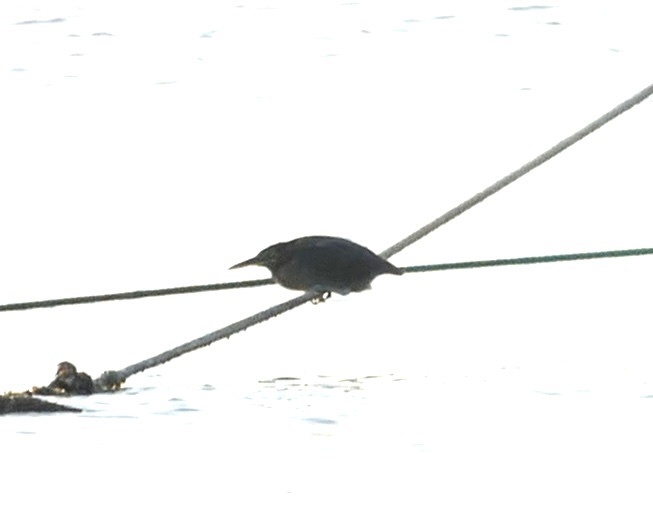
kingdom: Animalia
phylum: Chordata
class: Aves
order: Pelecaniformes
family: Ardeidae
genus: Butorides
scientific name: Butorides striata
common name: Striated heron
